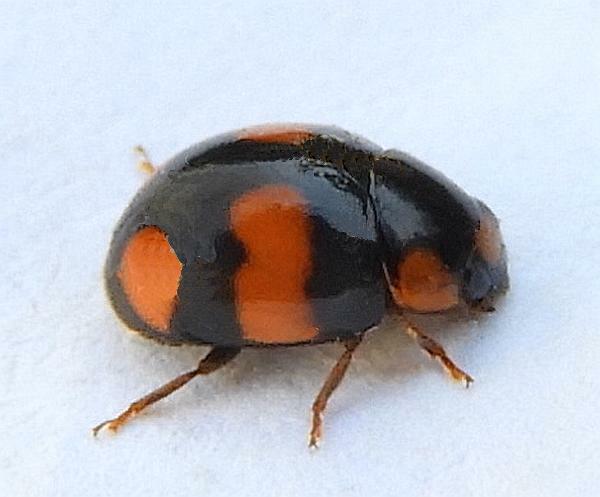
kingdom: Animalia
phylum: Arthropoda
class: Insecta
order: Coleoptera
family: Coccinellidae
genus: Brachiacantha
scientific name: Brachiacantha dentipes
